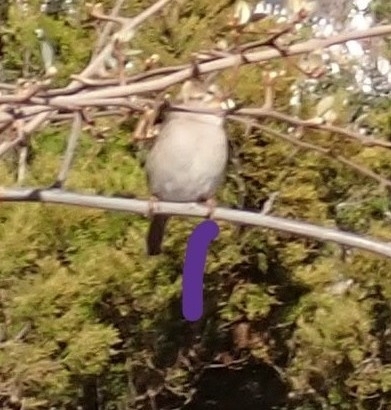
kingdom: Animalia
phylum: Chordata
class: Aves
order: Passeriformes
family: Passeridae
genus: Passer
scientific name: Passer domesticus
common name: House sparrow
